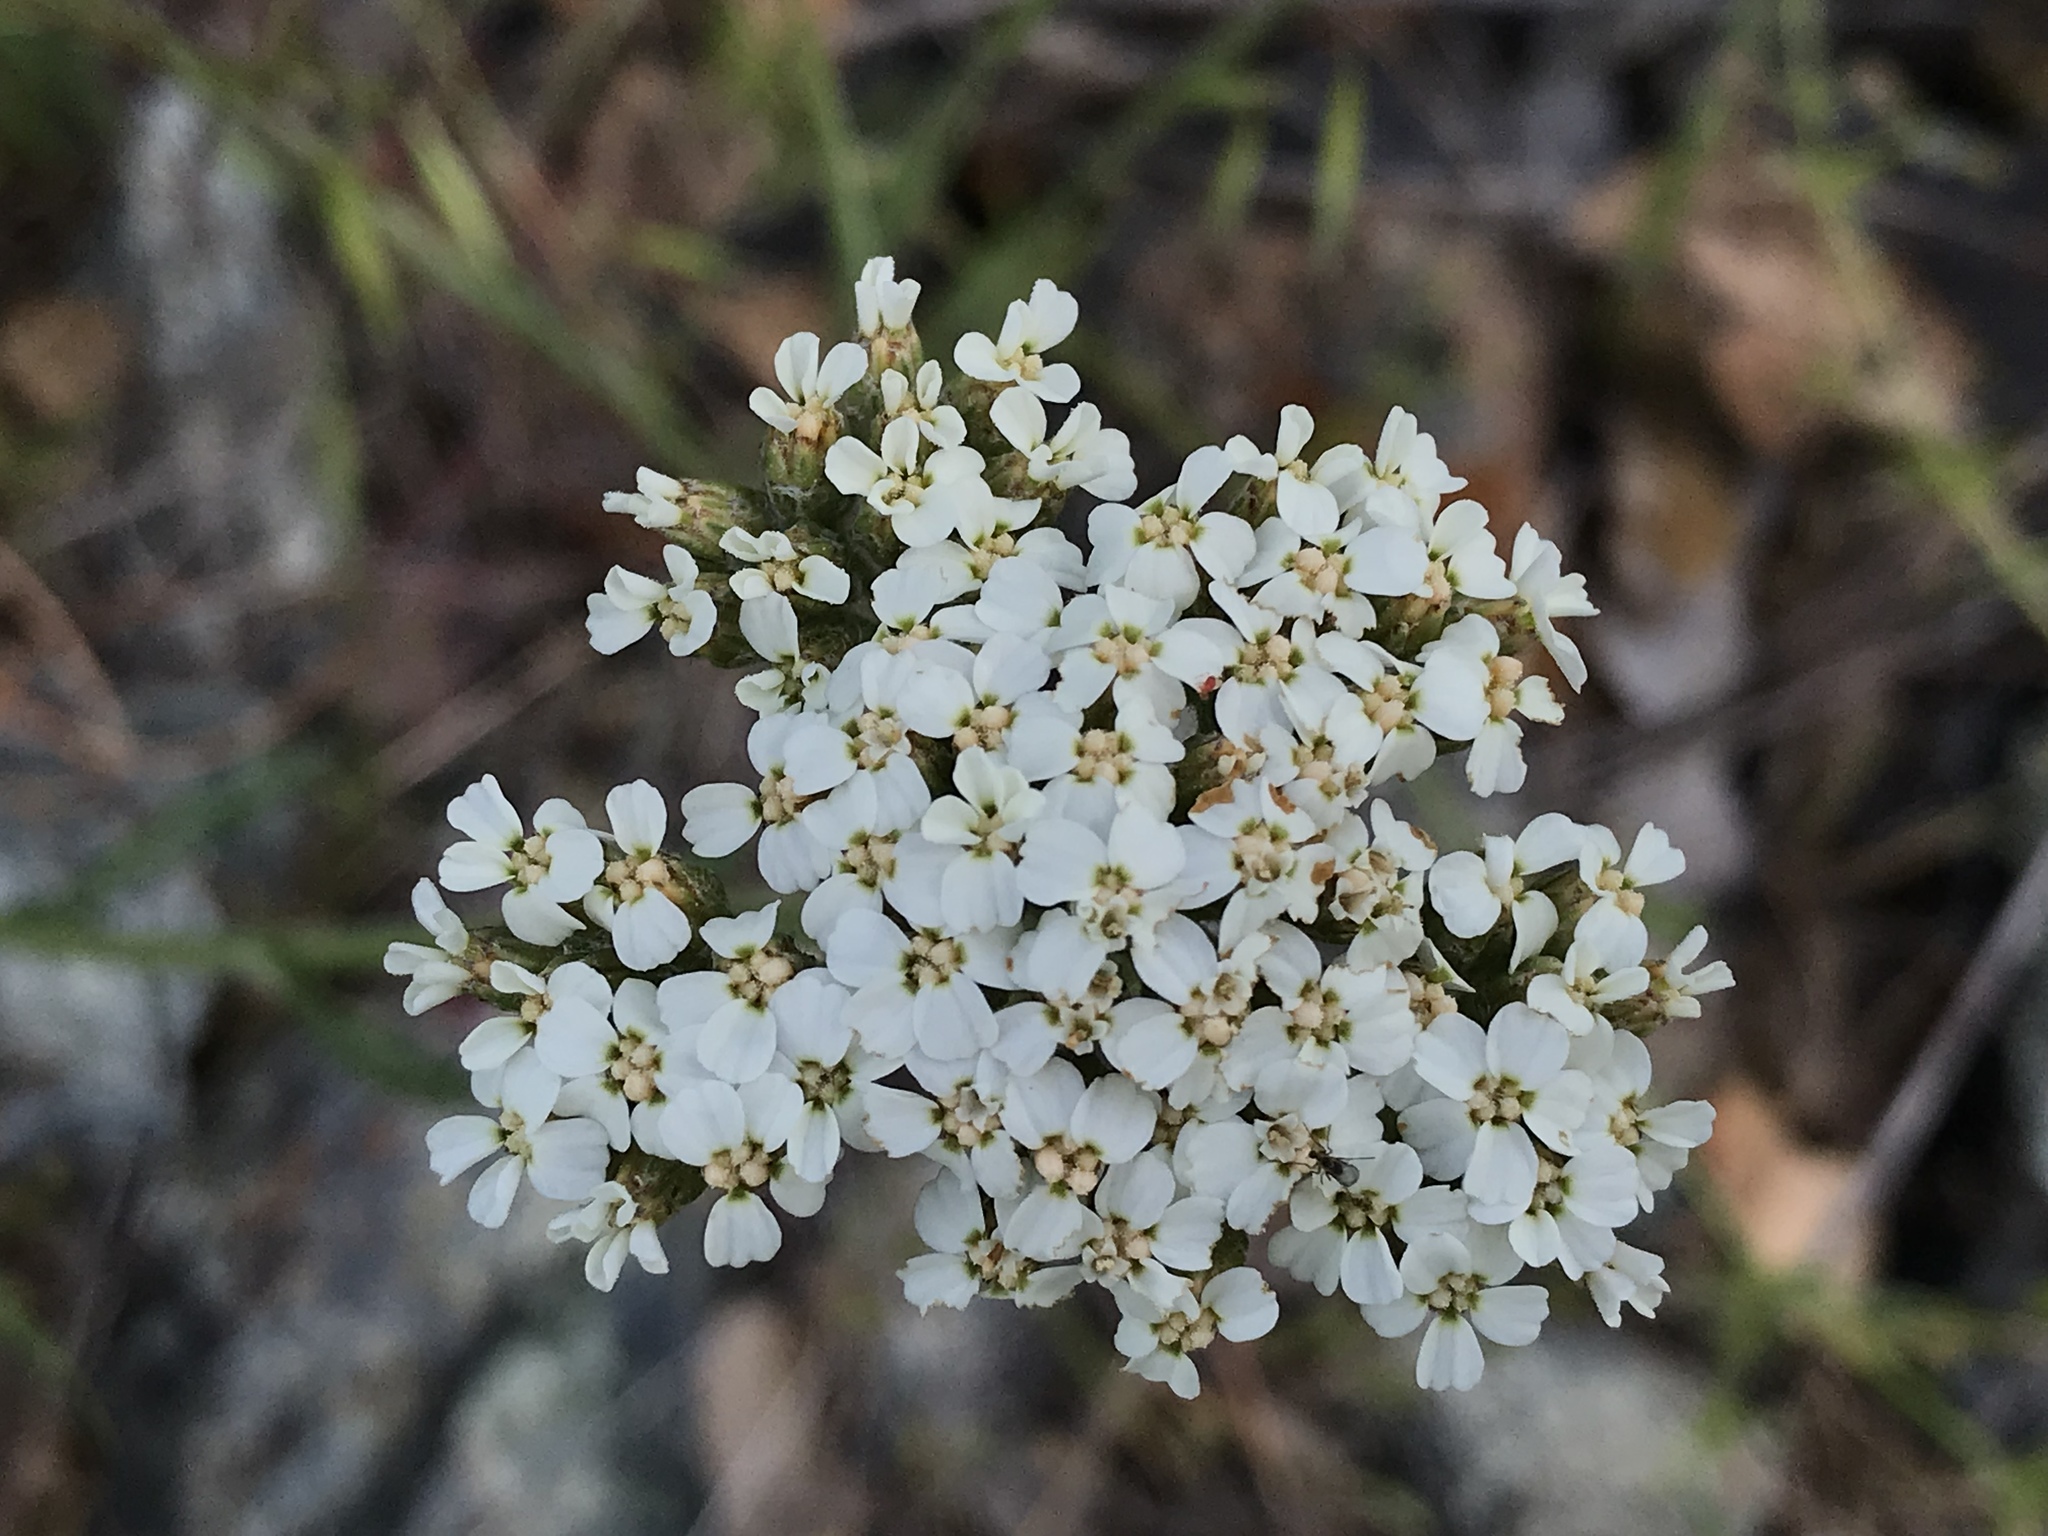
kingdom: Plantae
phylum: Tracheophyta
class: Magnoliopsida
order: Asterales
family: Asteraceae
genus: Achillea
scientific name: Achillea millefolium
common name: Yarrow
